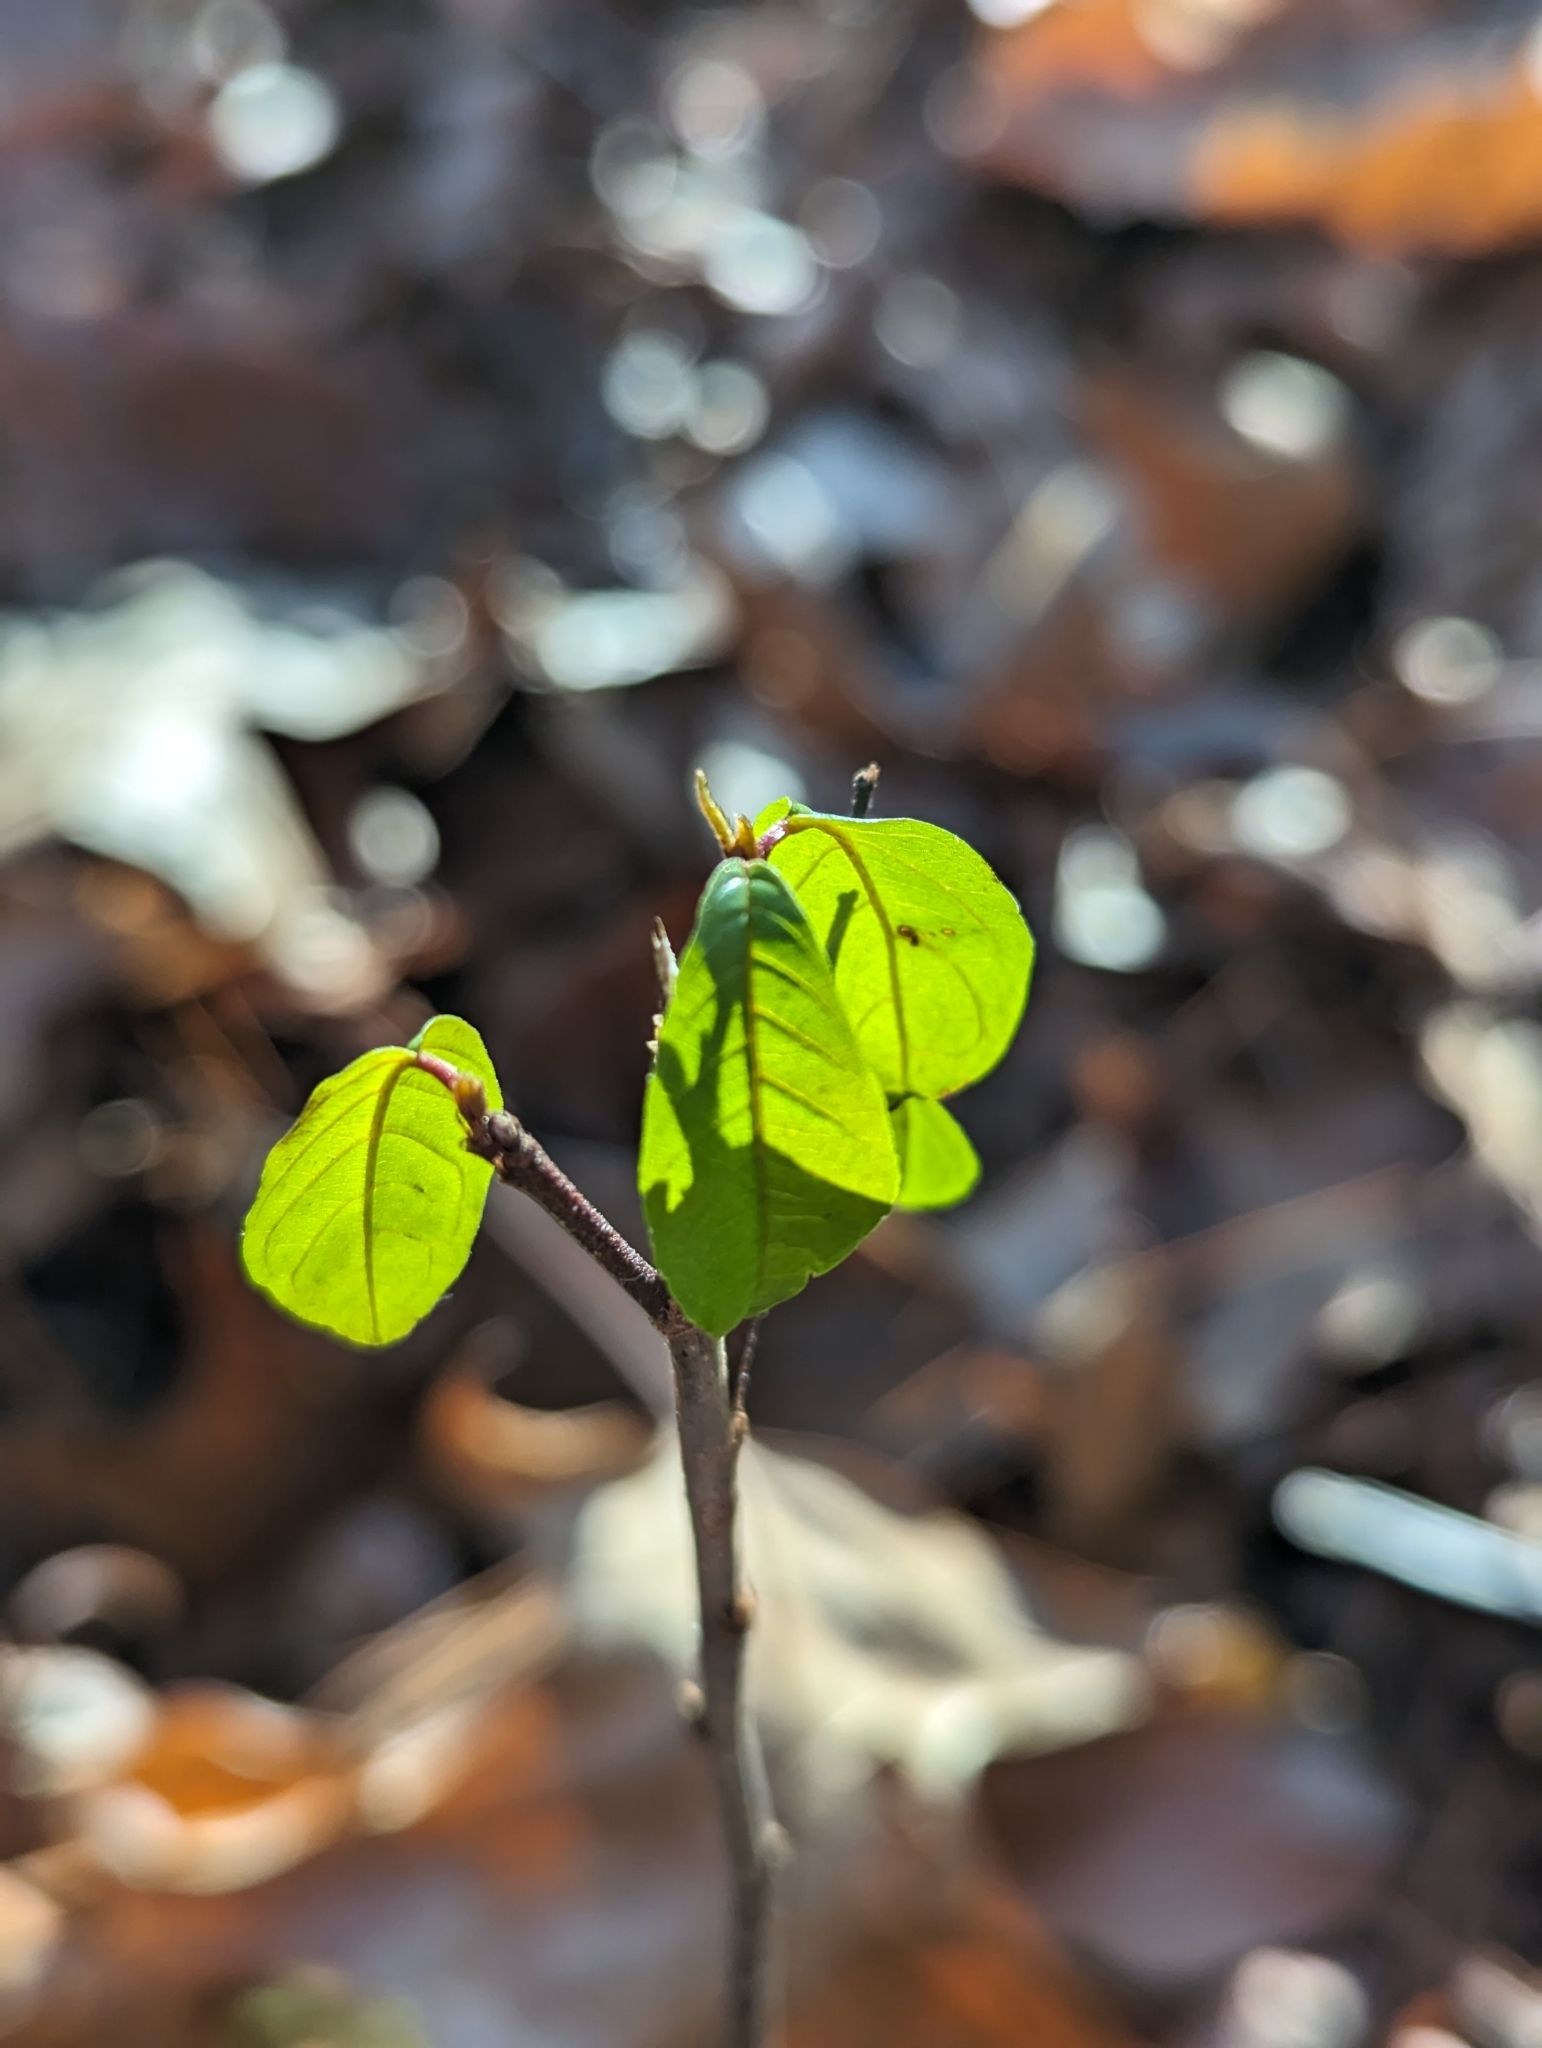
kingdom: Plantae
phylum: Tracheophyta
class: Magnoliopsida
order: Rosales
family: Rhamnaceae
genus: Frangula
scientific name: Frangula alnus
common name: Alder buckthorn
